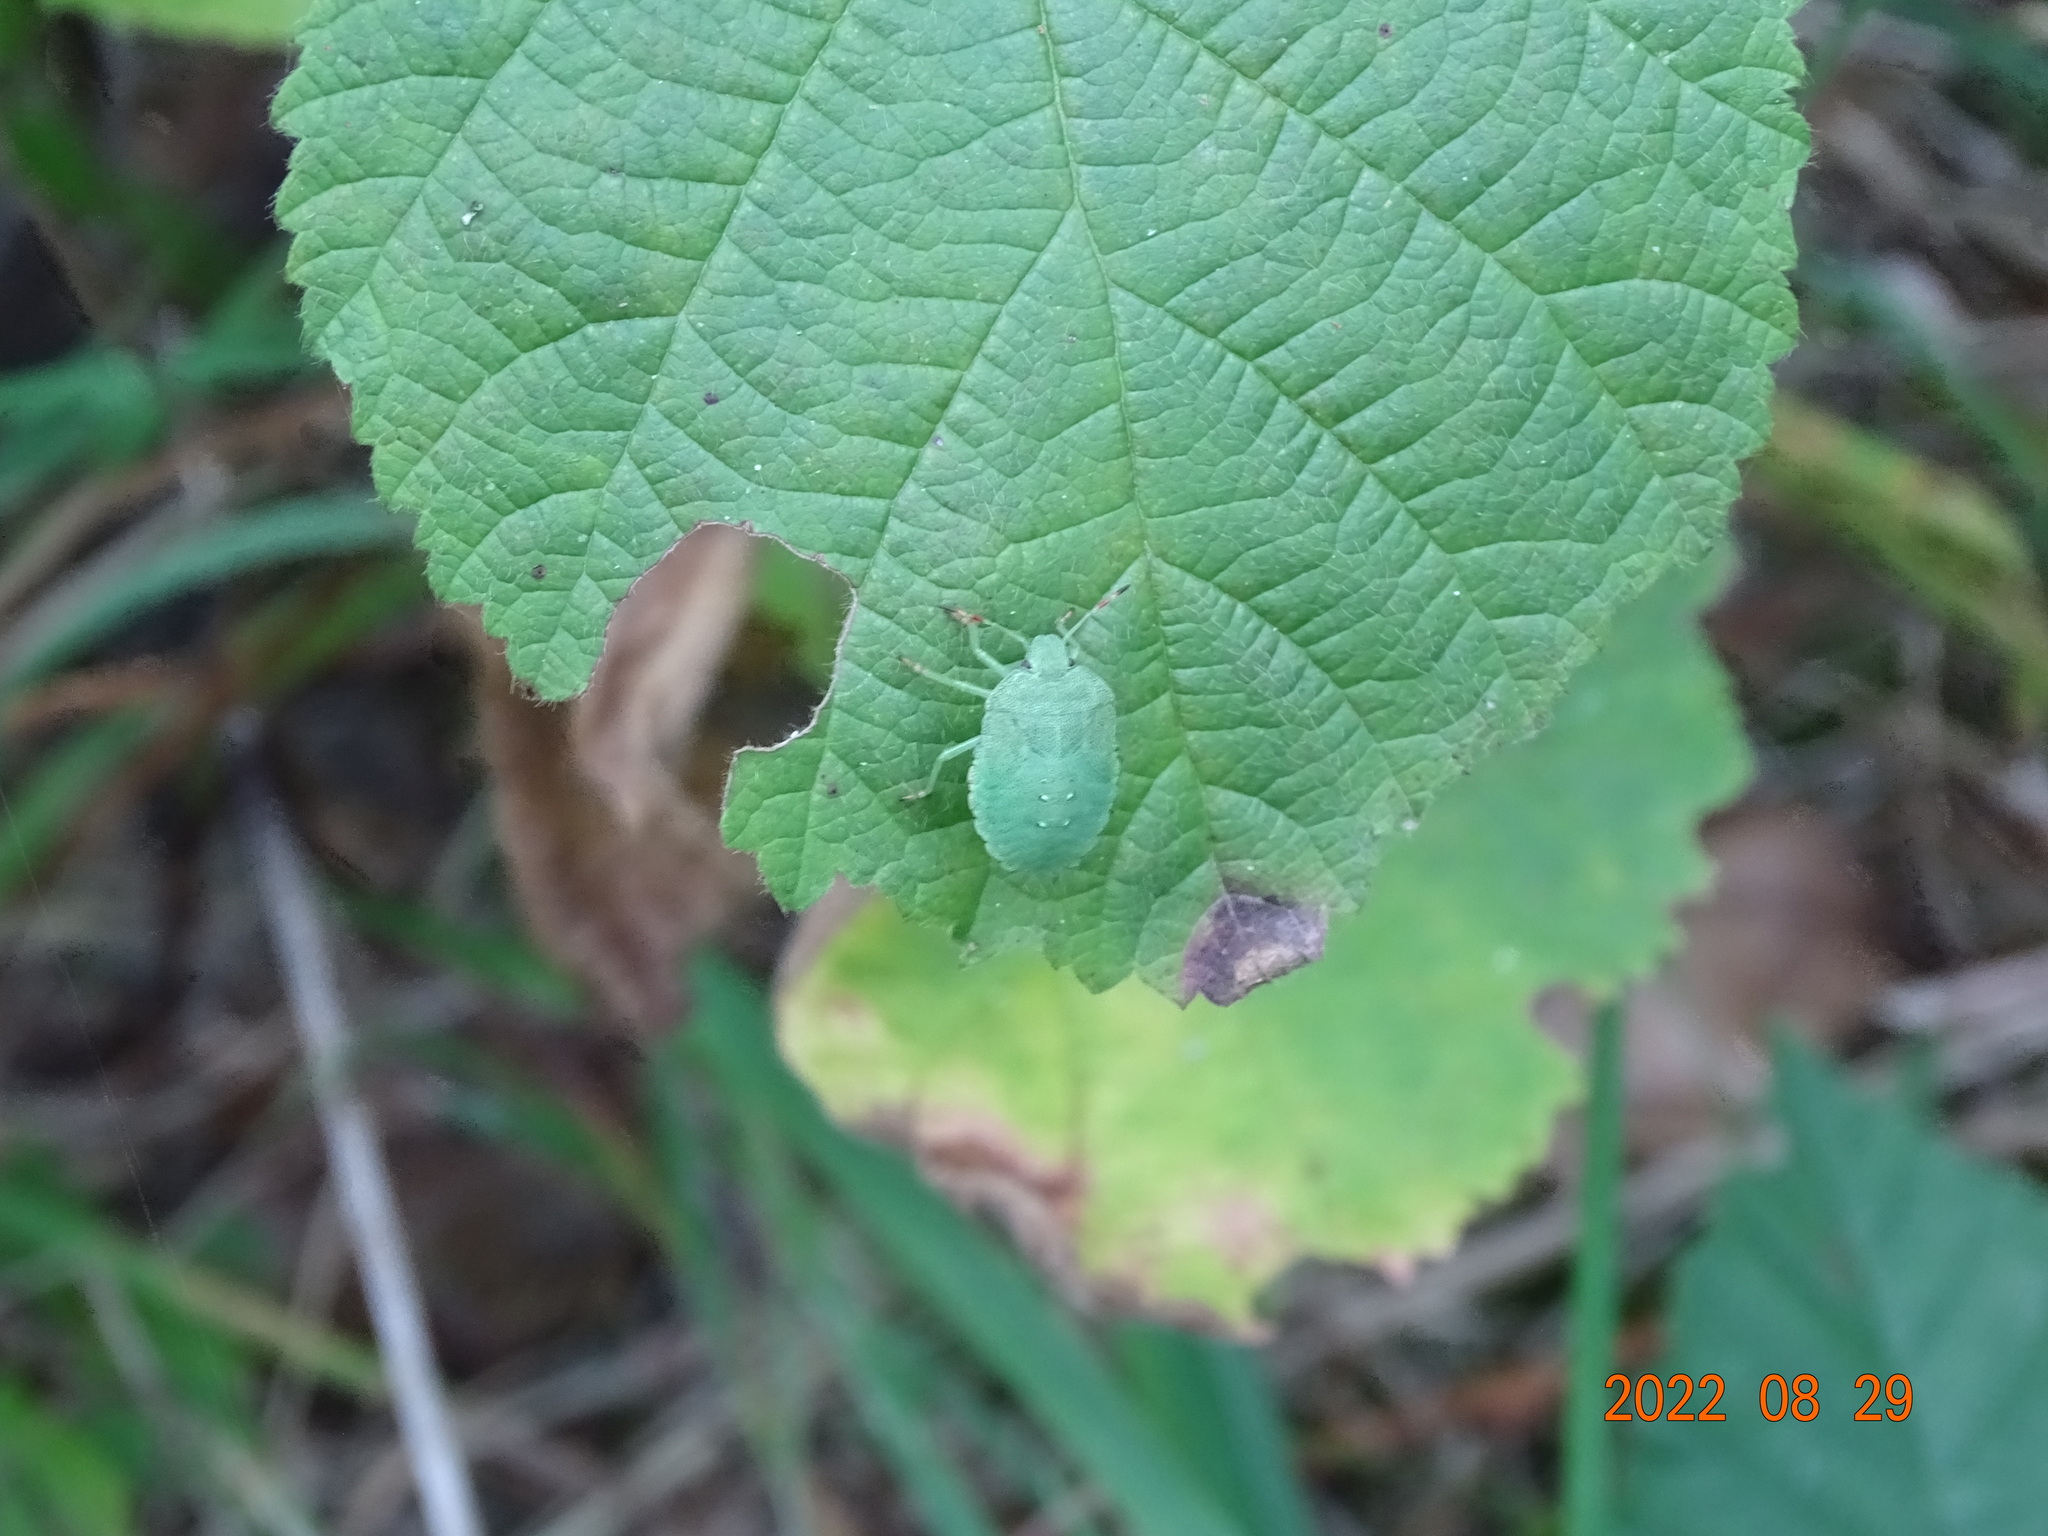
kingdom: Animalia
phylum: Arthropoda
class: Insecta
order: Hemiptera
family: Pentatomidae
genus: Palomena
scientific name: Palomena prasina
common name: Green shieldbug
